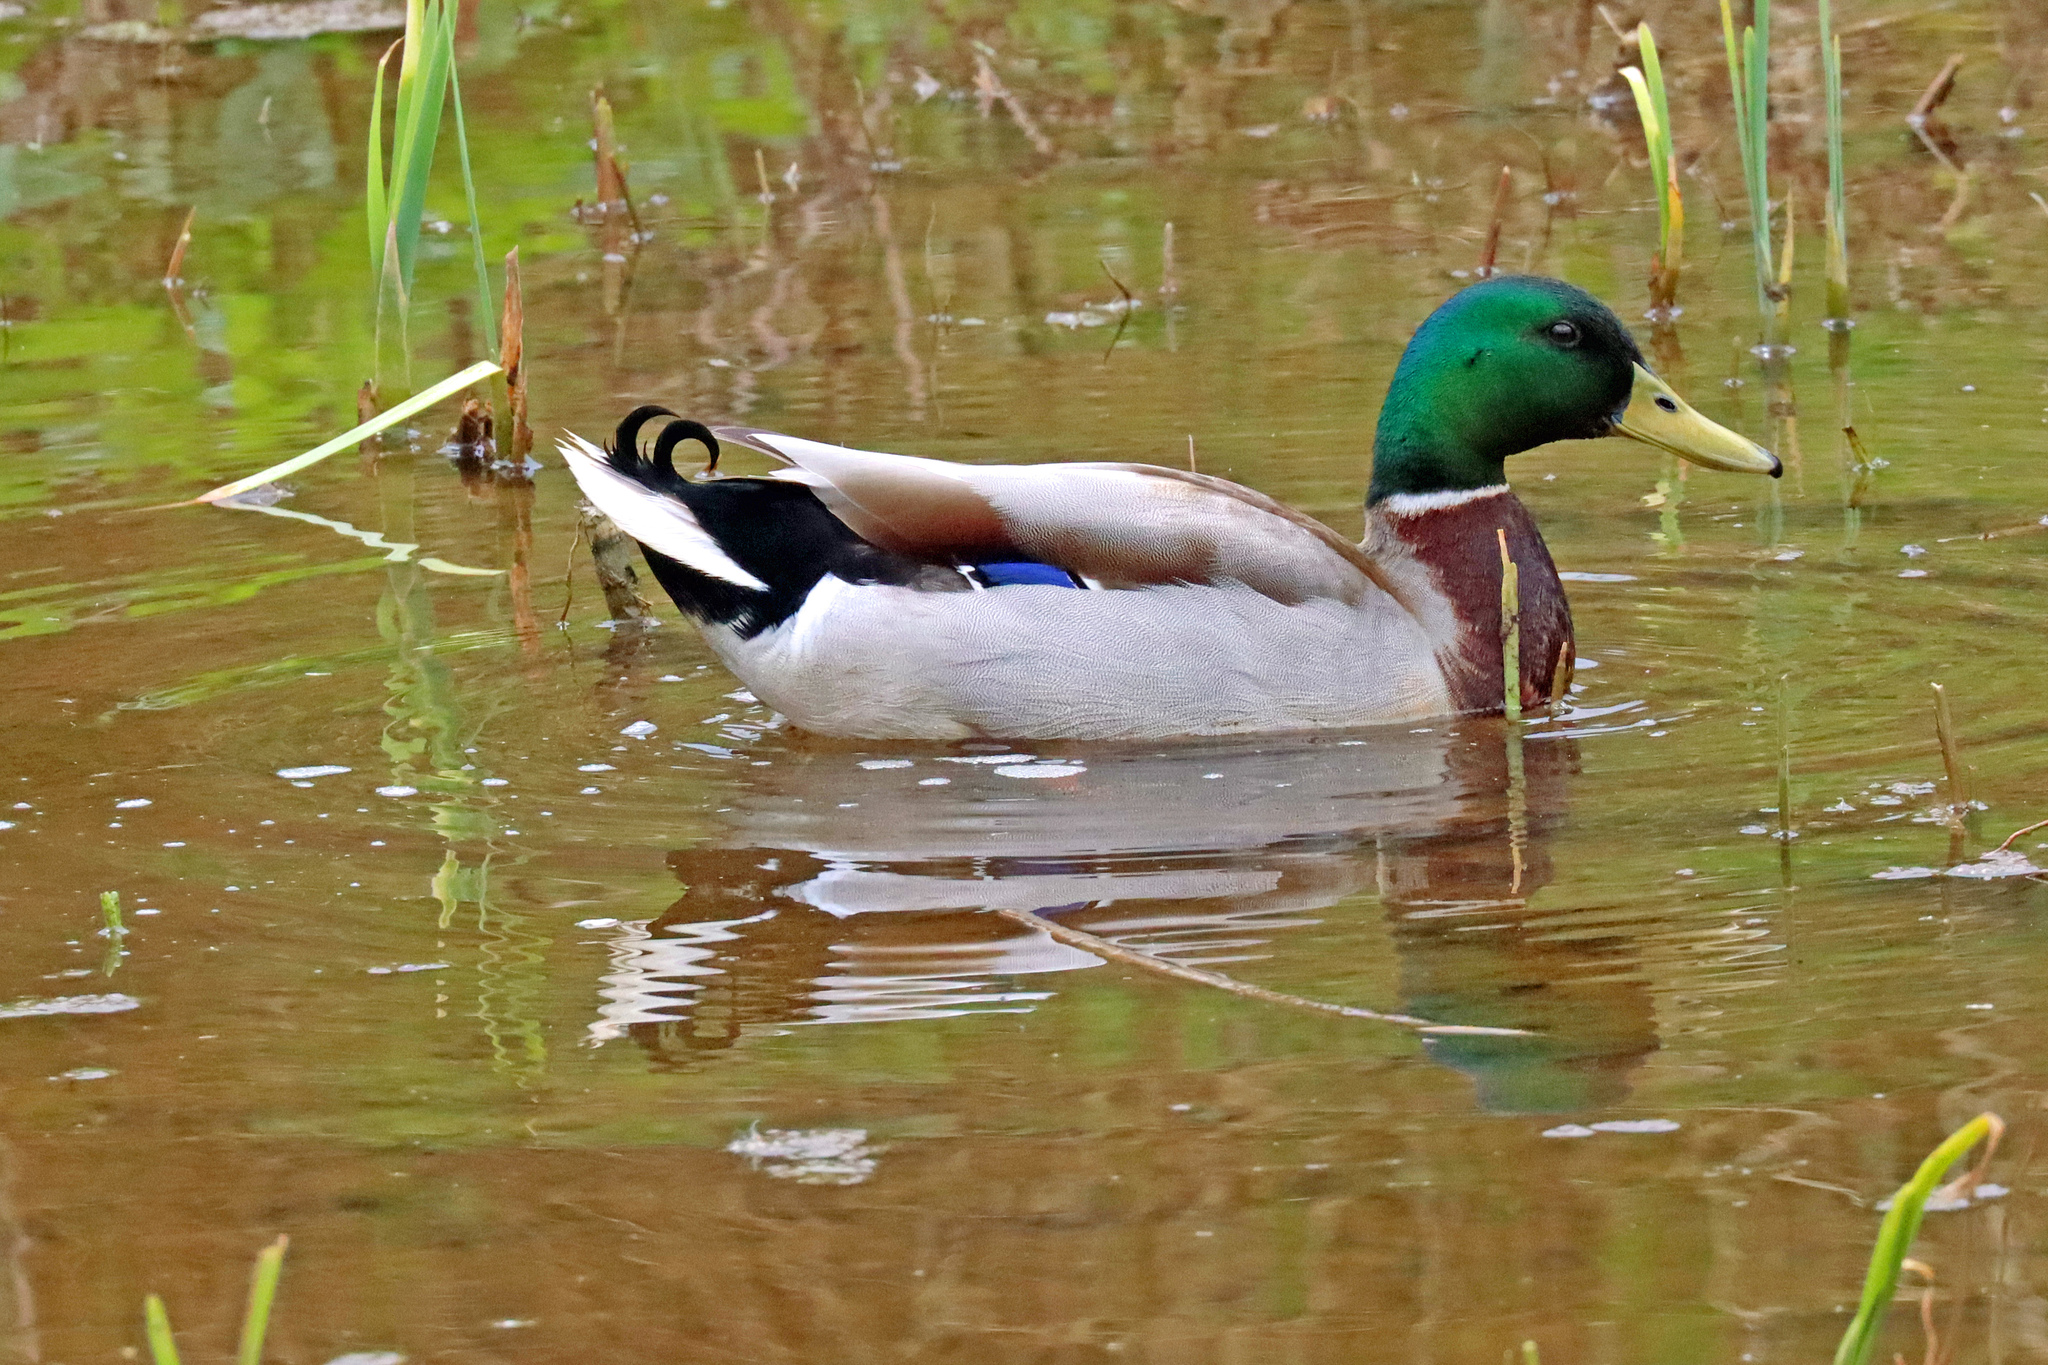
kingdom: Animalia
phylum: Chordata
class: Aves
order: Anseriformes
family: Anatidae
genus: Anas
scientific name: Anas platyrhynchos
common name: Mallard
